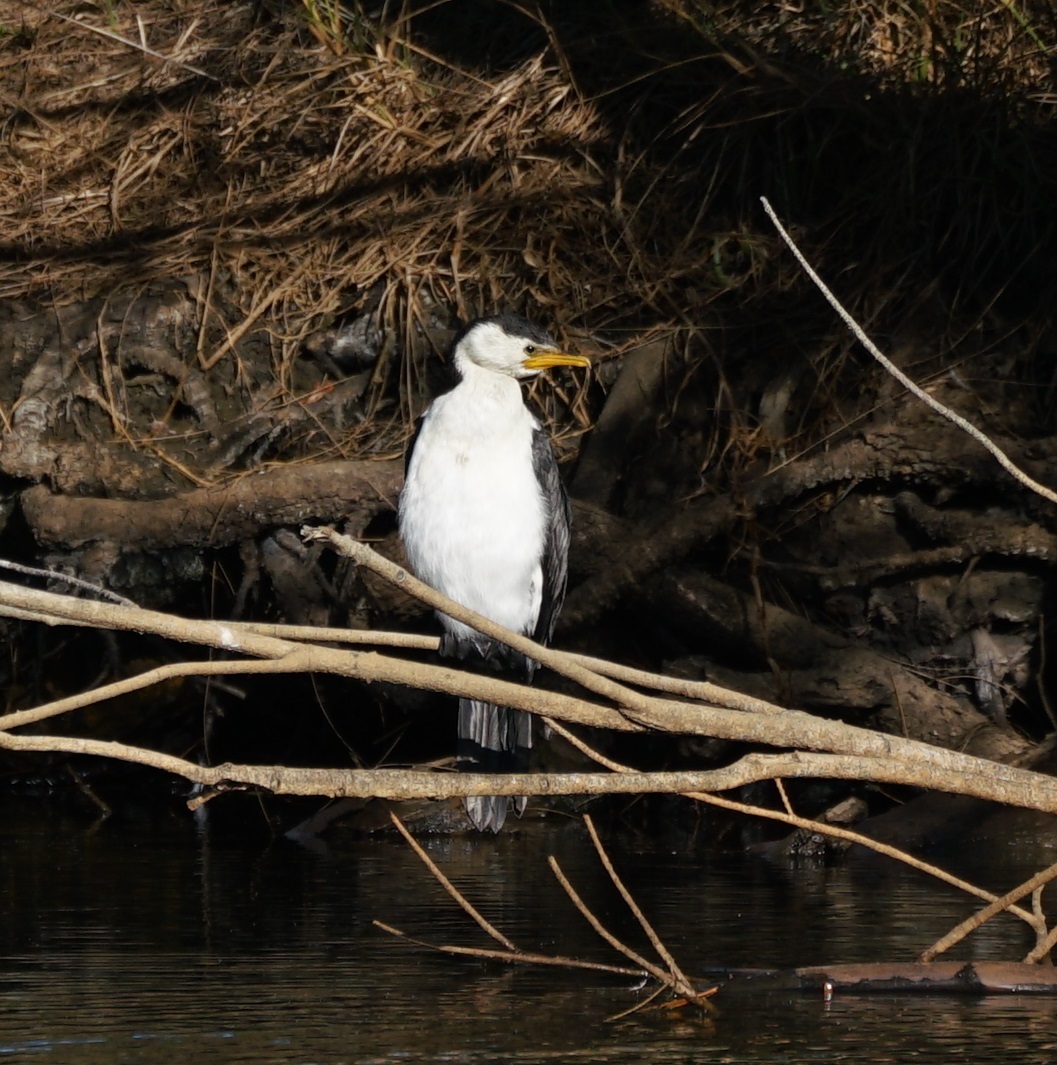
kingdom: Animalia
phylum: Chordata
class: Aves
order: Suliformes
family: Phalacrocoracidae
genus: Microcarbo
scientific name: Microcarbo melanoleucos
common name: Little pied cormorant
